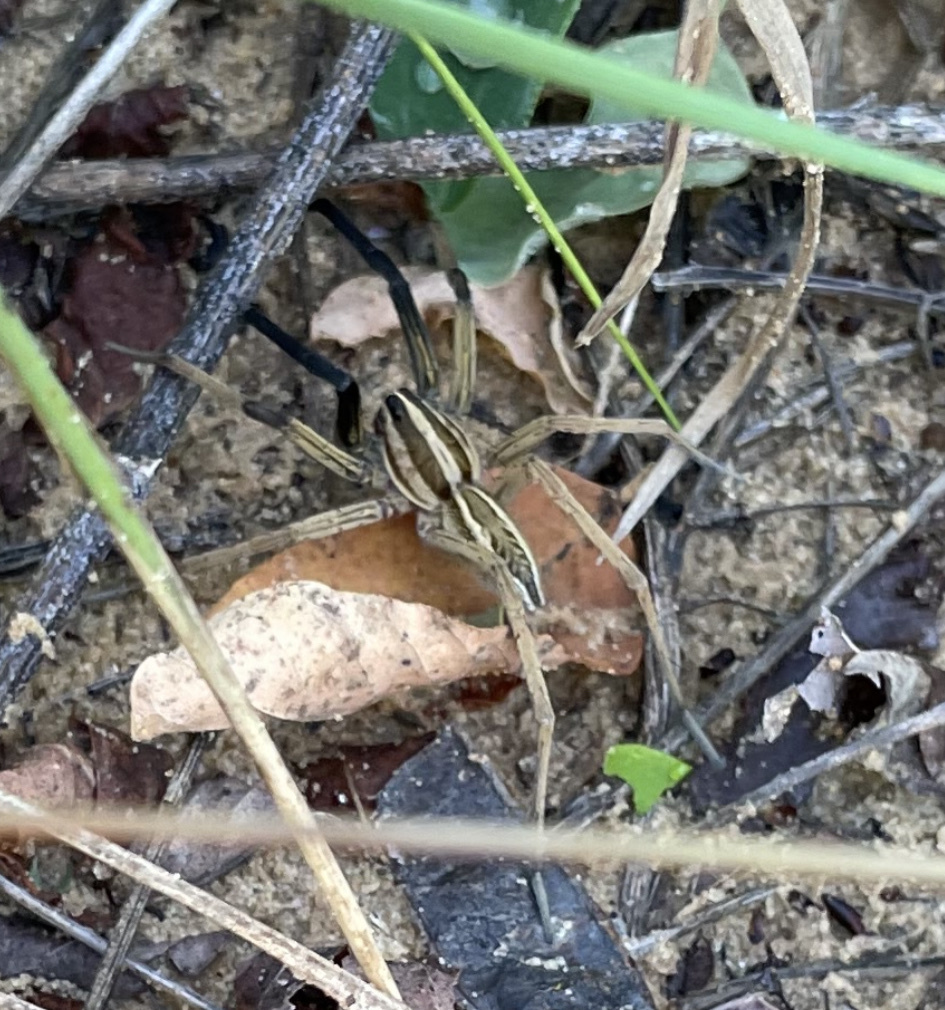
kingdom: Animalia
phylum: Arthropoda
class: Arachnida
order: Araneae
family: Lycosidae
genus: Rabidosa
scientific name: Rabidosa rabida
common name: Rabid wolf spider
